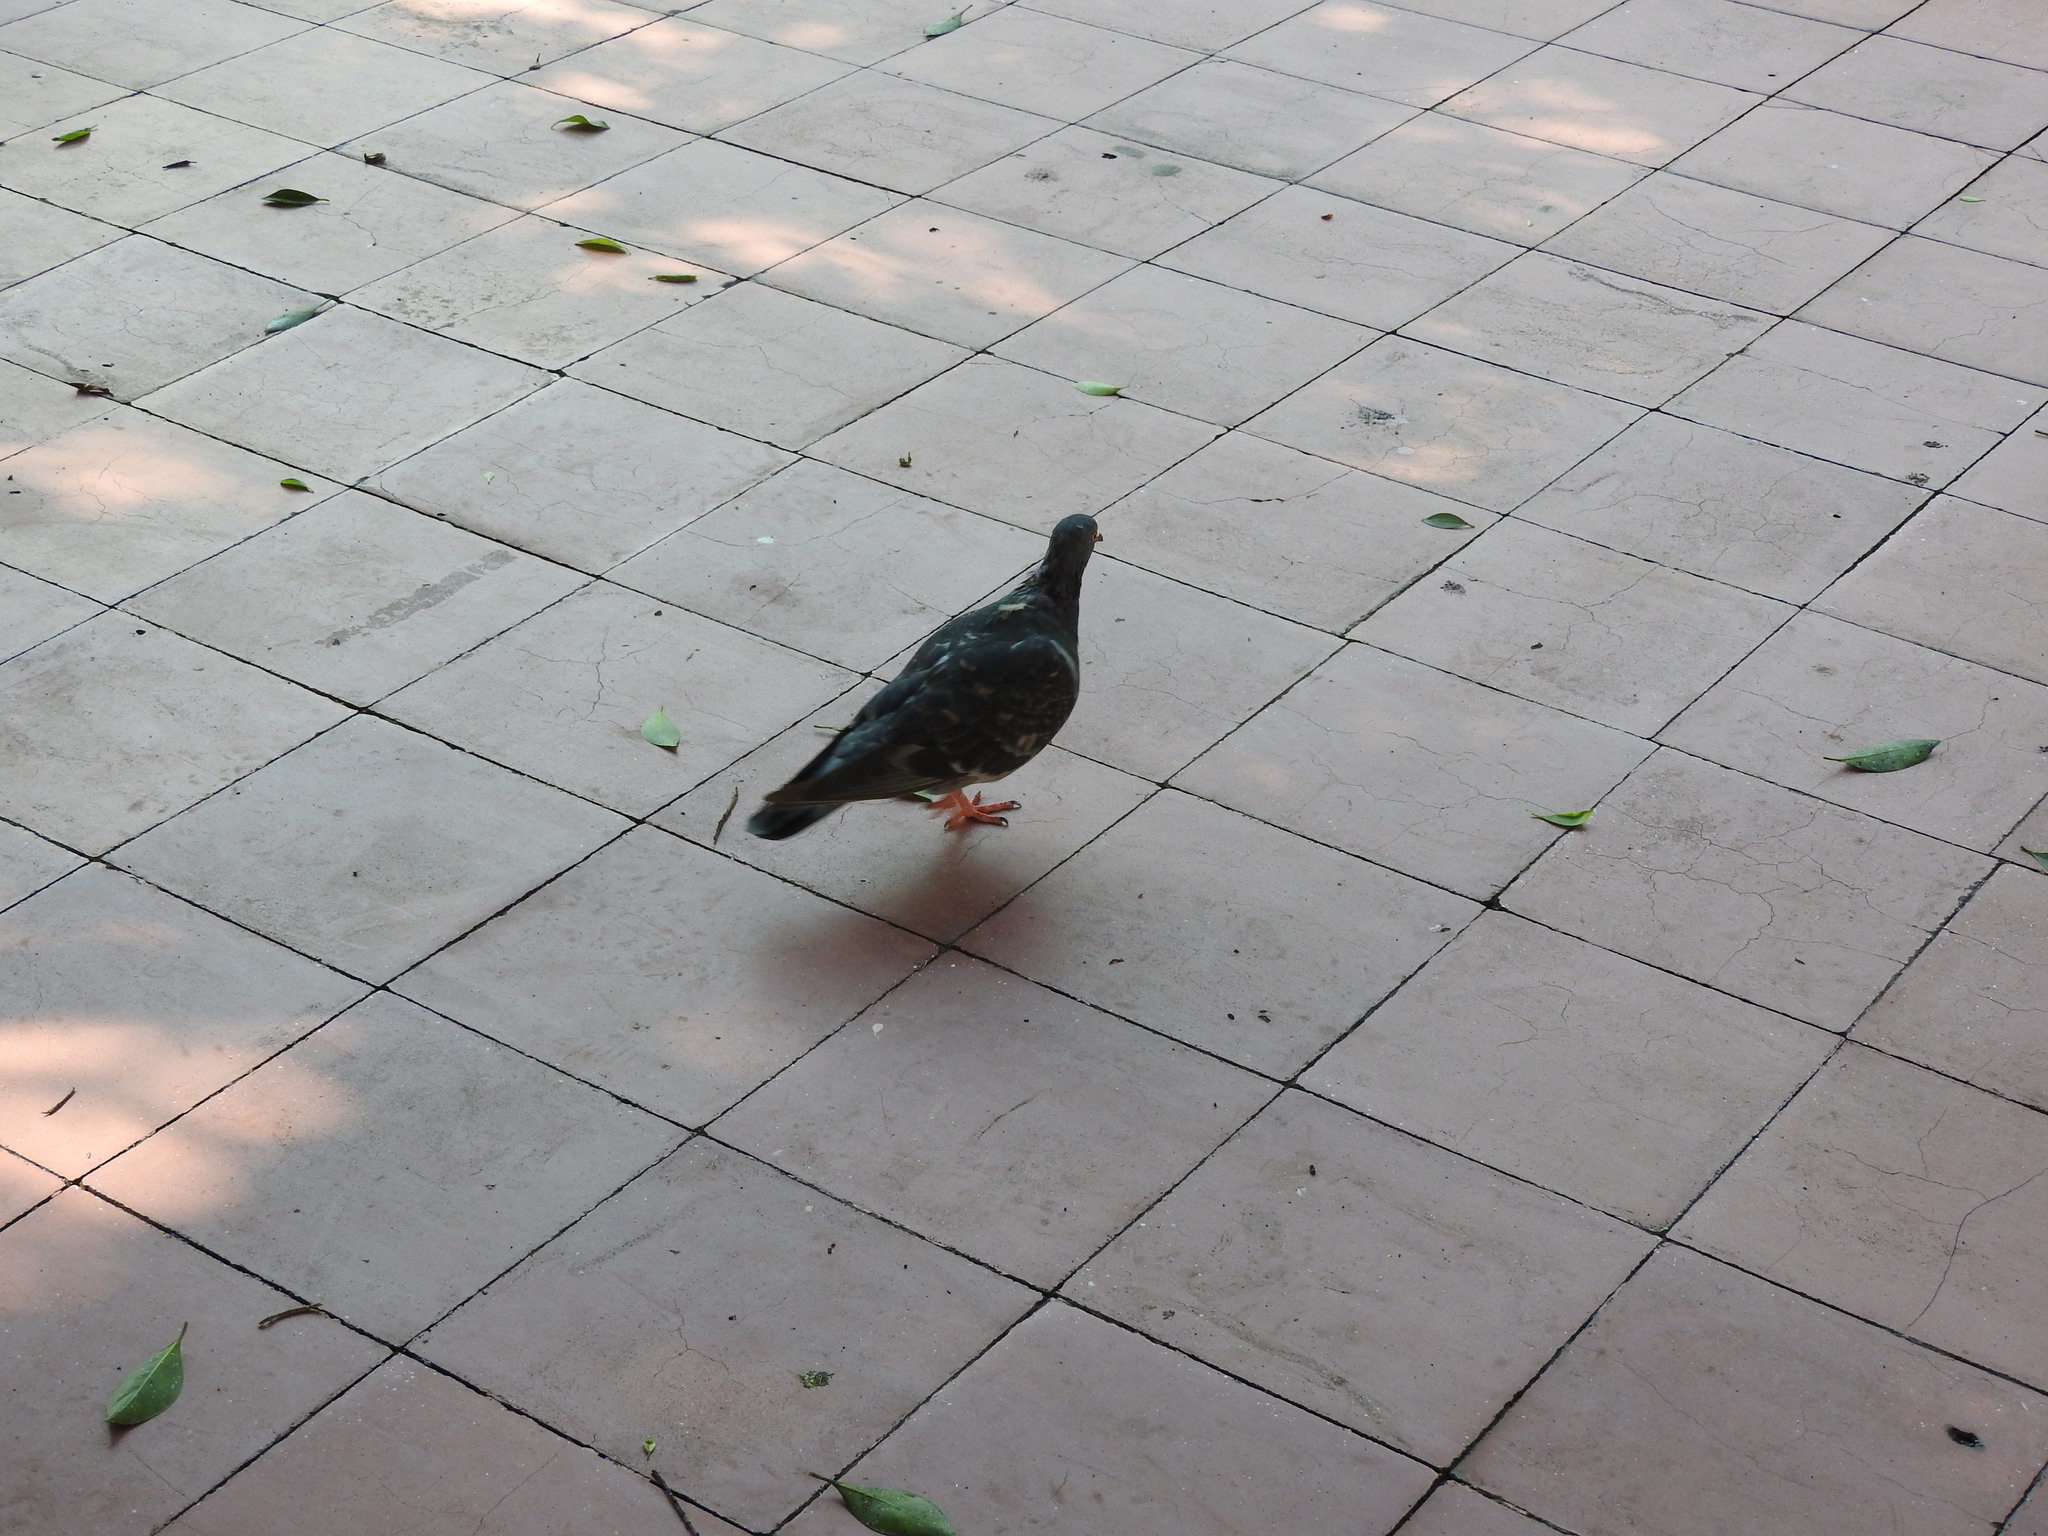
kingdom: Animalia
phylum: Chordata
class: Aves
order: Columbiformes
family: Columbidae
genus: Columba
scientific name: Columba livia
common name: Rock pigeon
